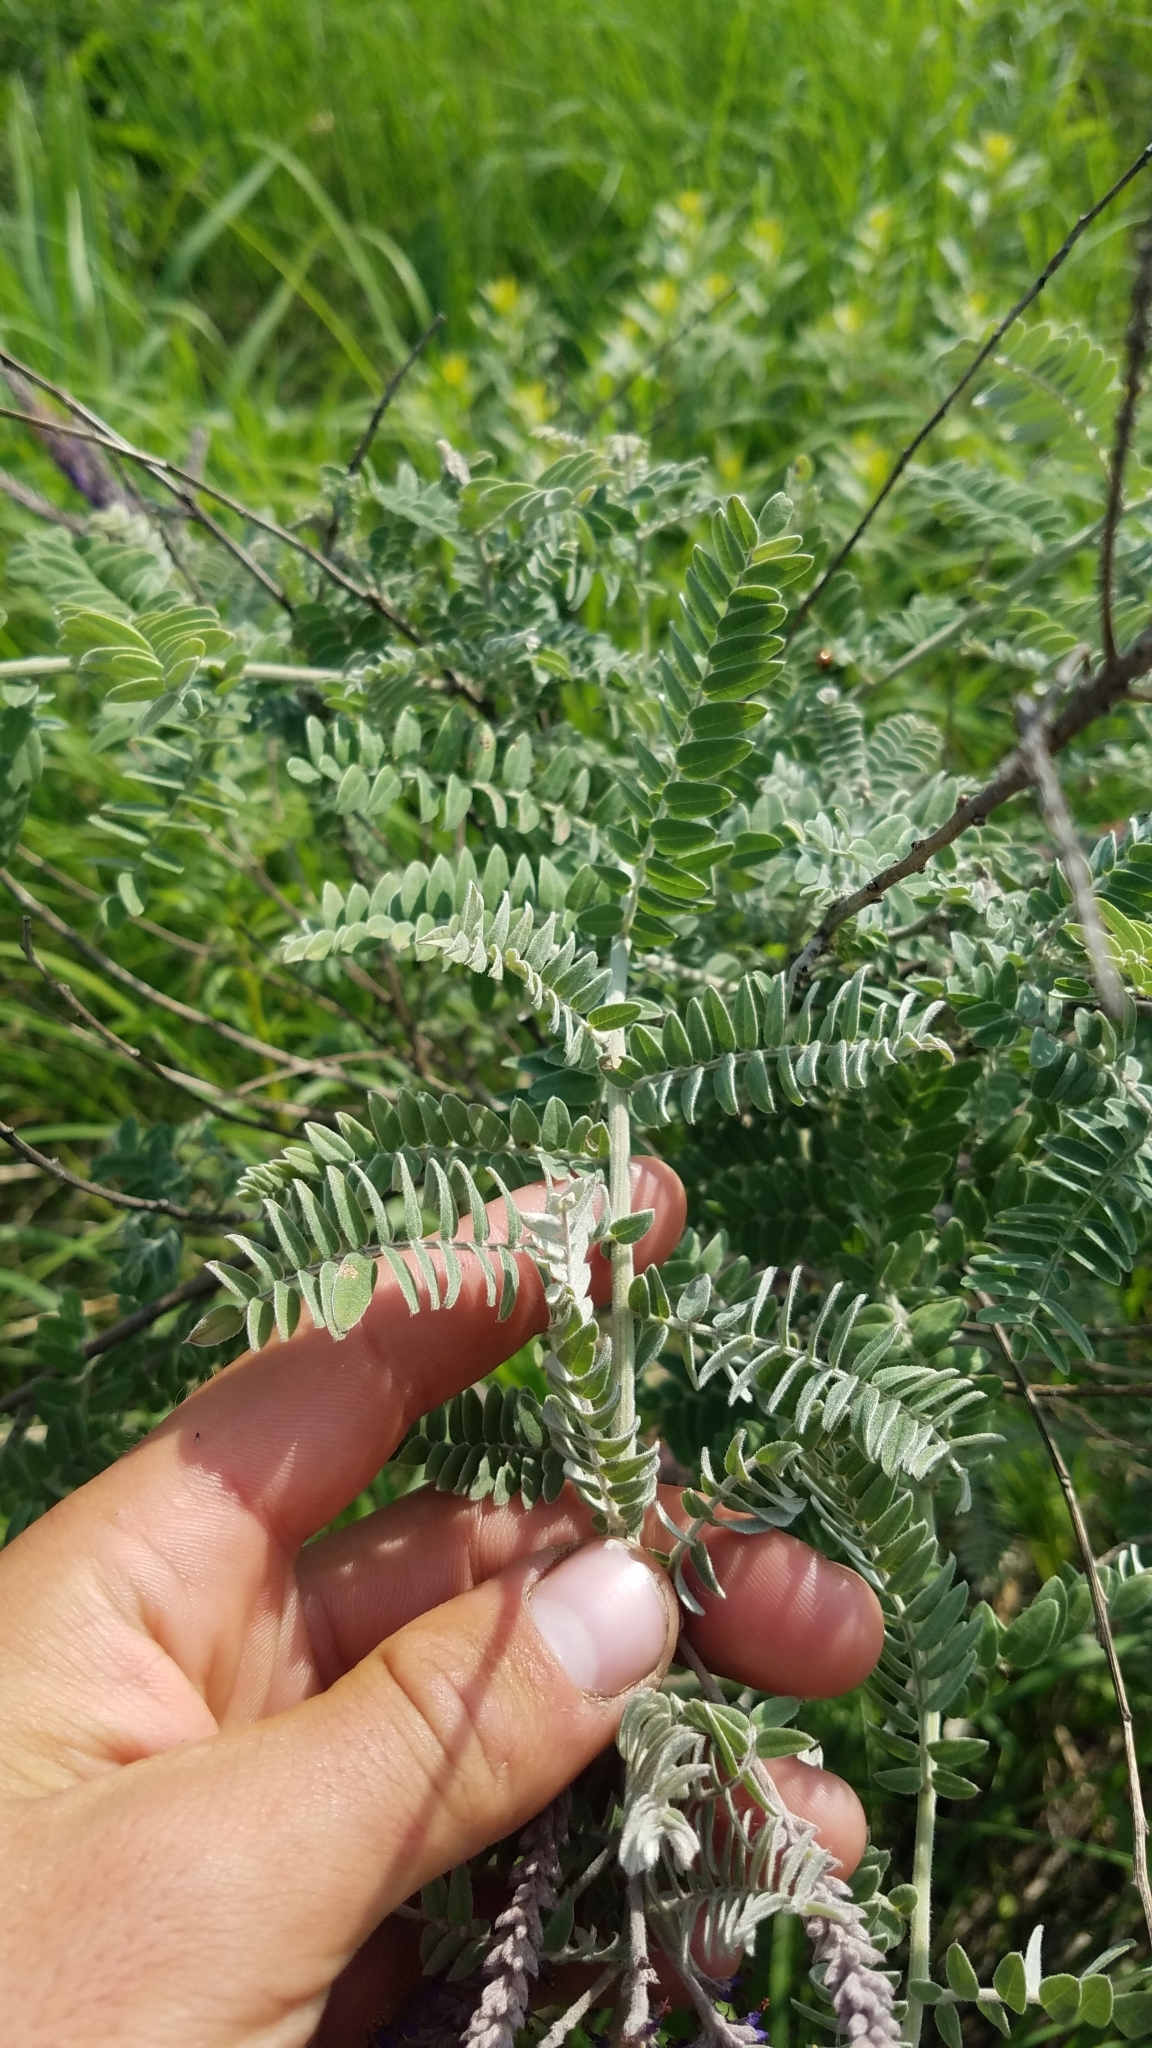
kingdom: Plantae
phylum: Tracheophyta
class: Magnoliopsida
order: Fabales
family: Fabaceae
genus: Amorpha
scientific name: Amorpha canescens
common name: Leadplant
